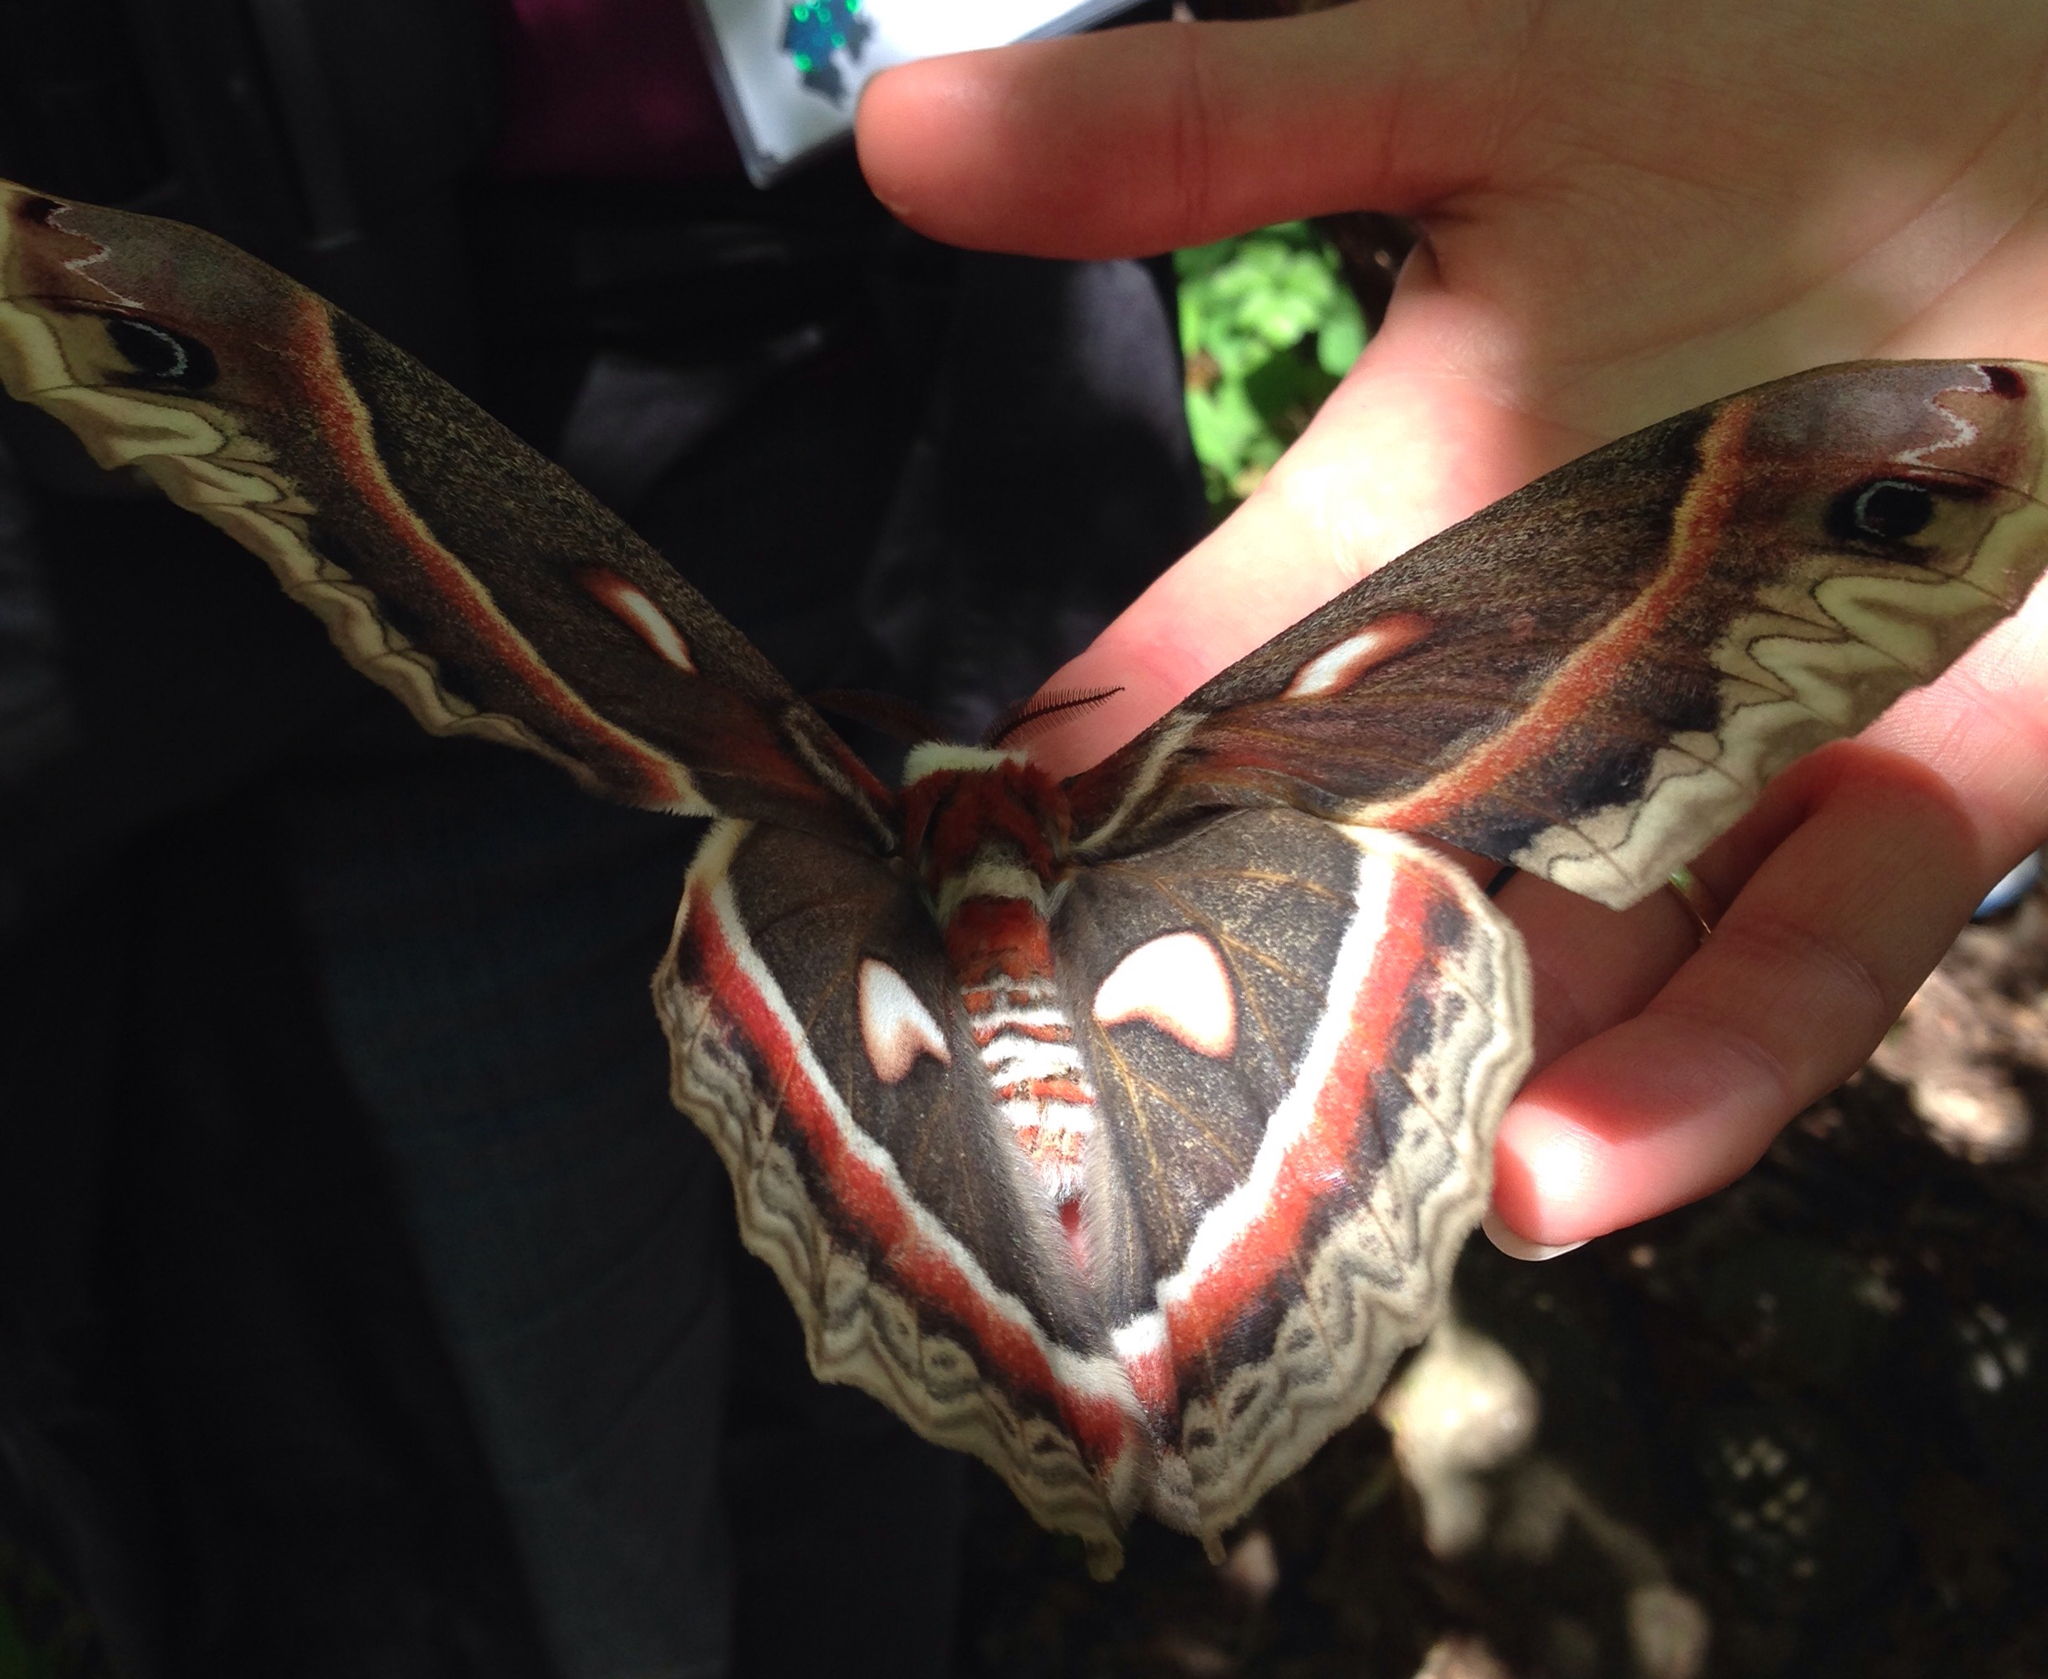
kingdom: Animalia
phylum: Arthropoda
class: Insecta
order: Lepidoptera
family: Saturniidae
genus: Hyalophora
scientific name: Hyalophora cecropia
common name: Cecropia silkmoth
